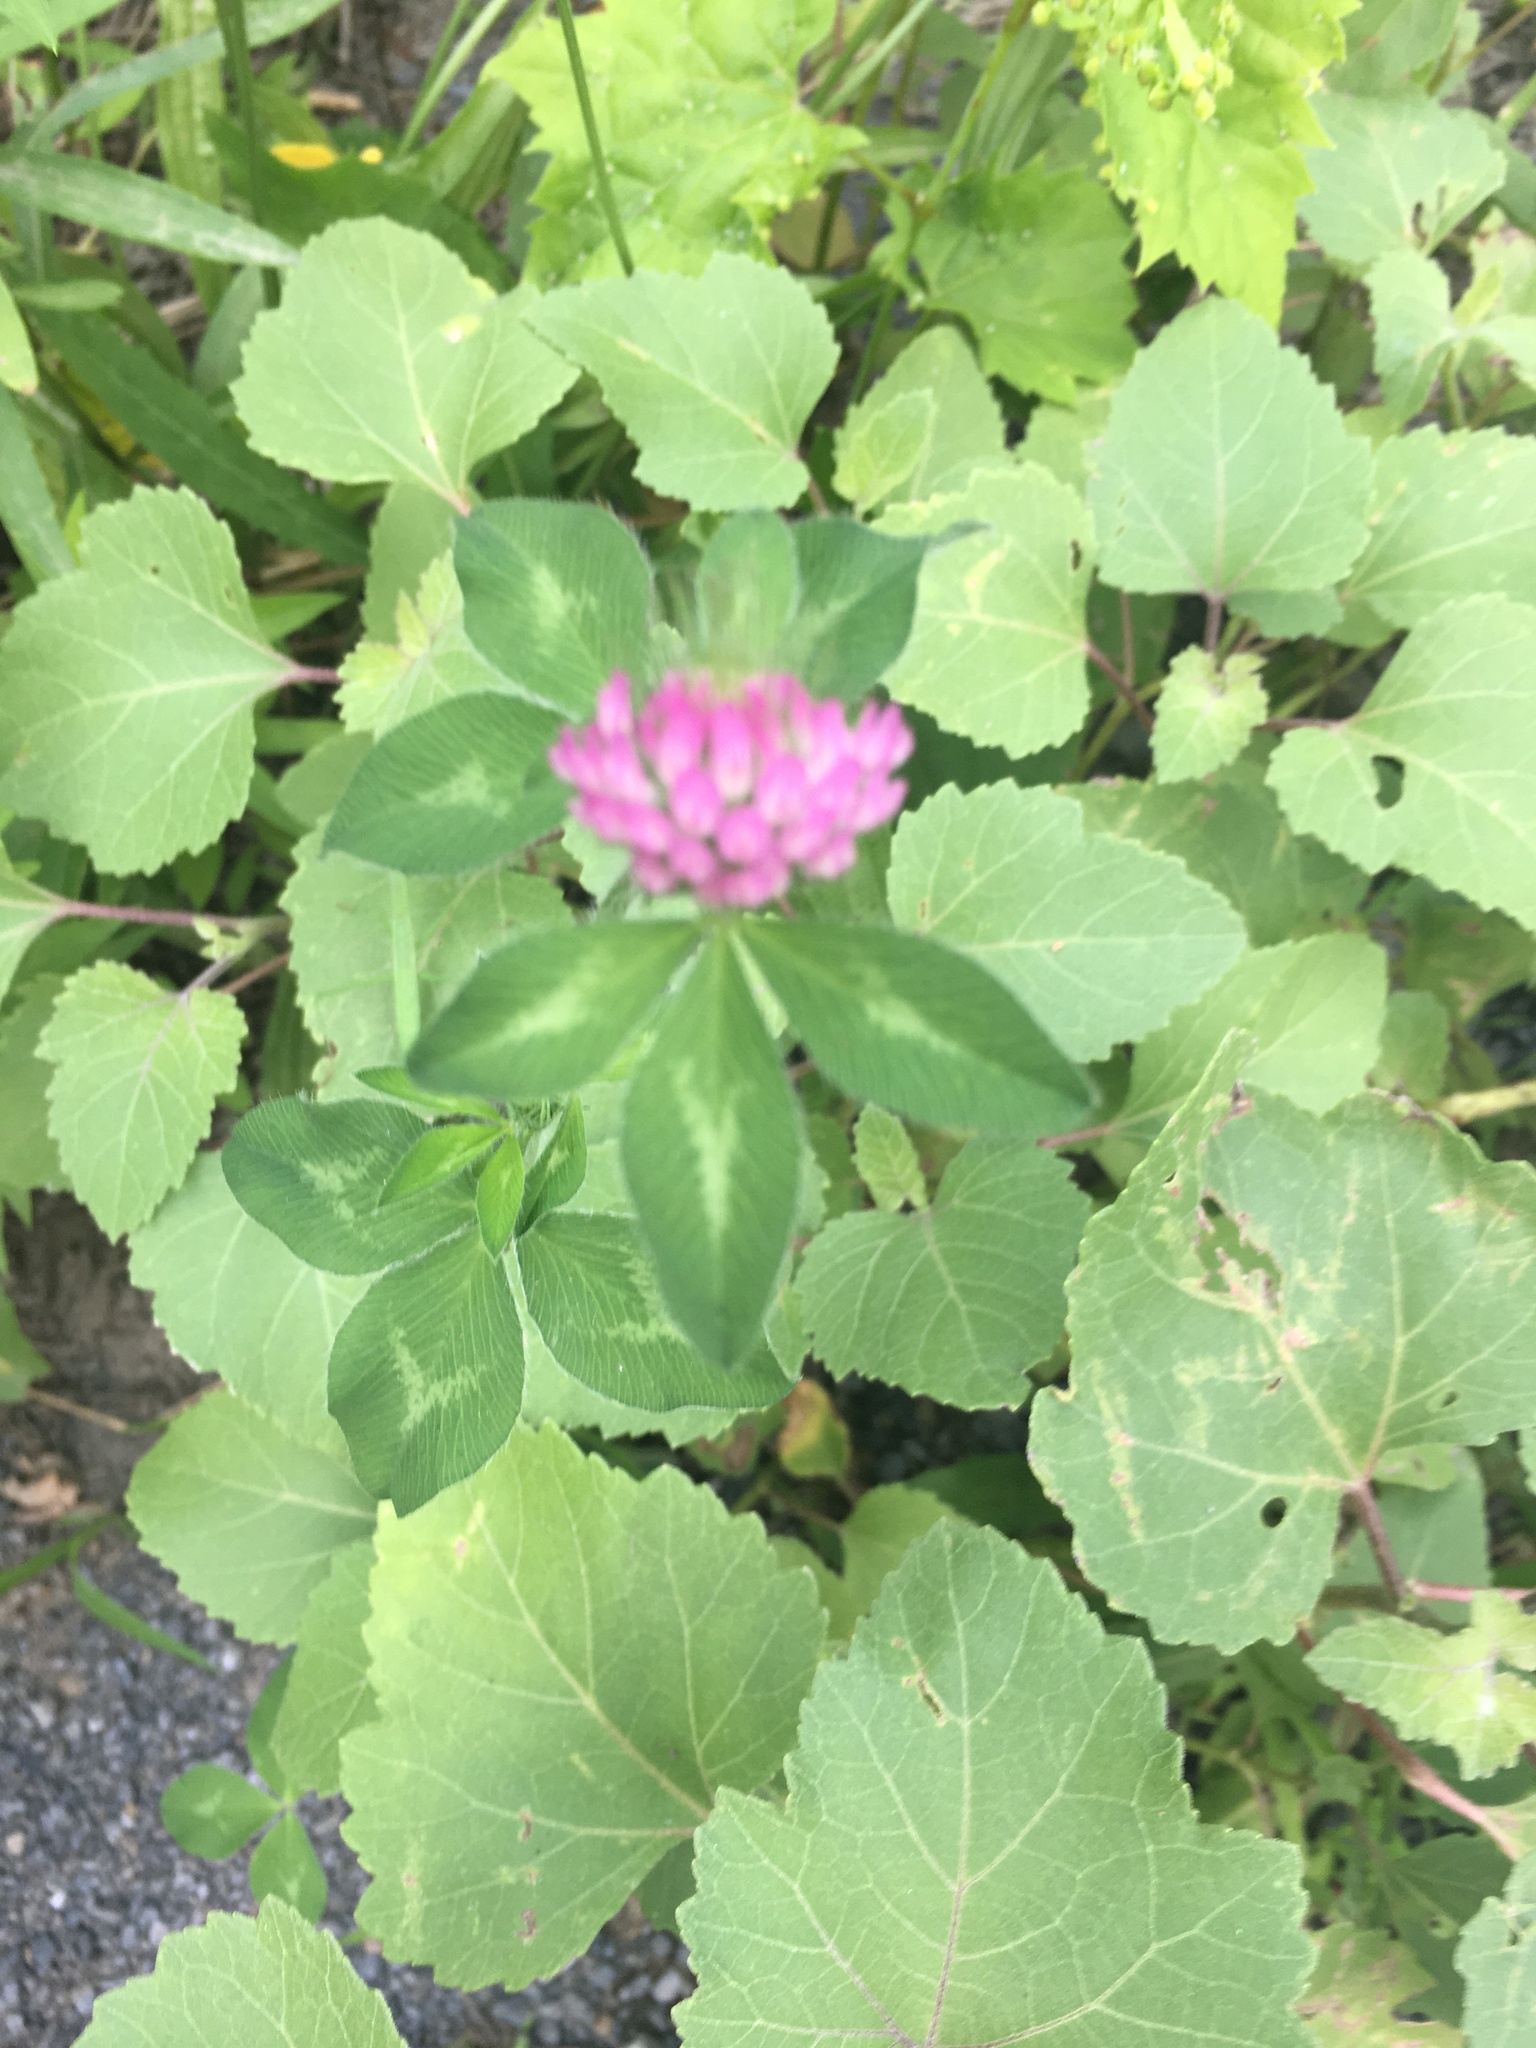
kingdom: Plantae
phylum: Tracheophyta
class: Magnoliopsida
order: Fabales
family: Fabaceae
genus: Trifolium
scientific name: Trifolium pratense
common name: Red clover
